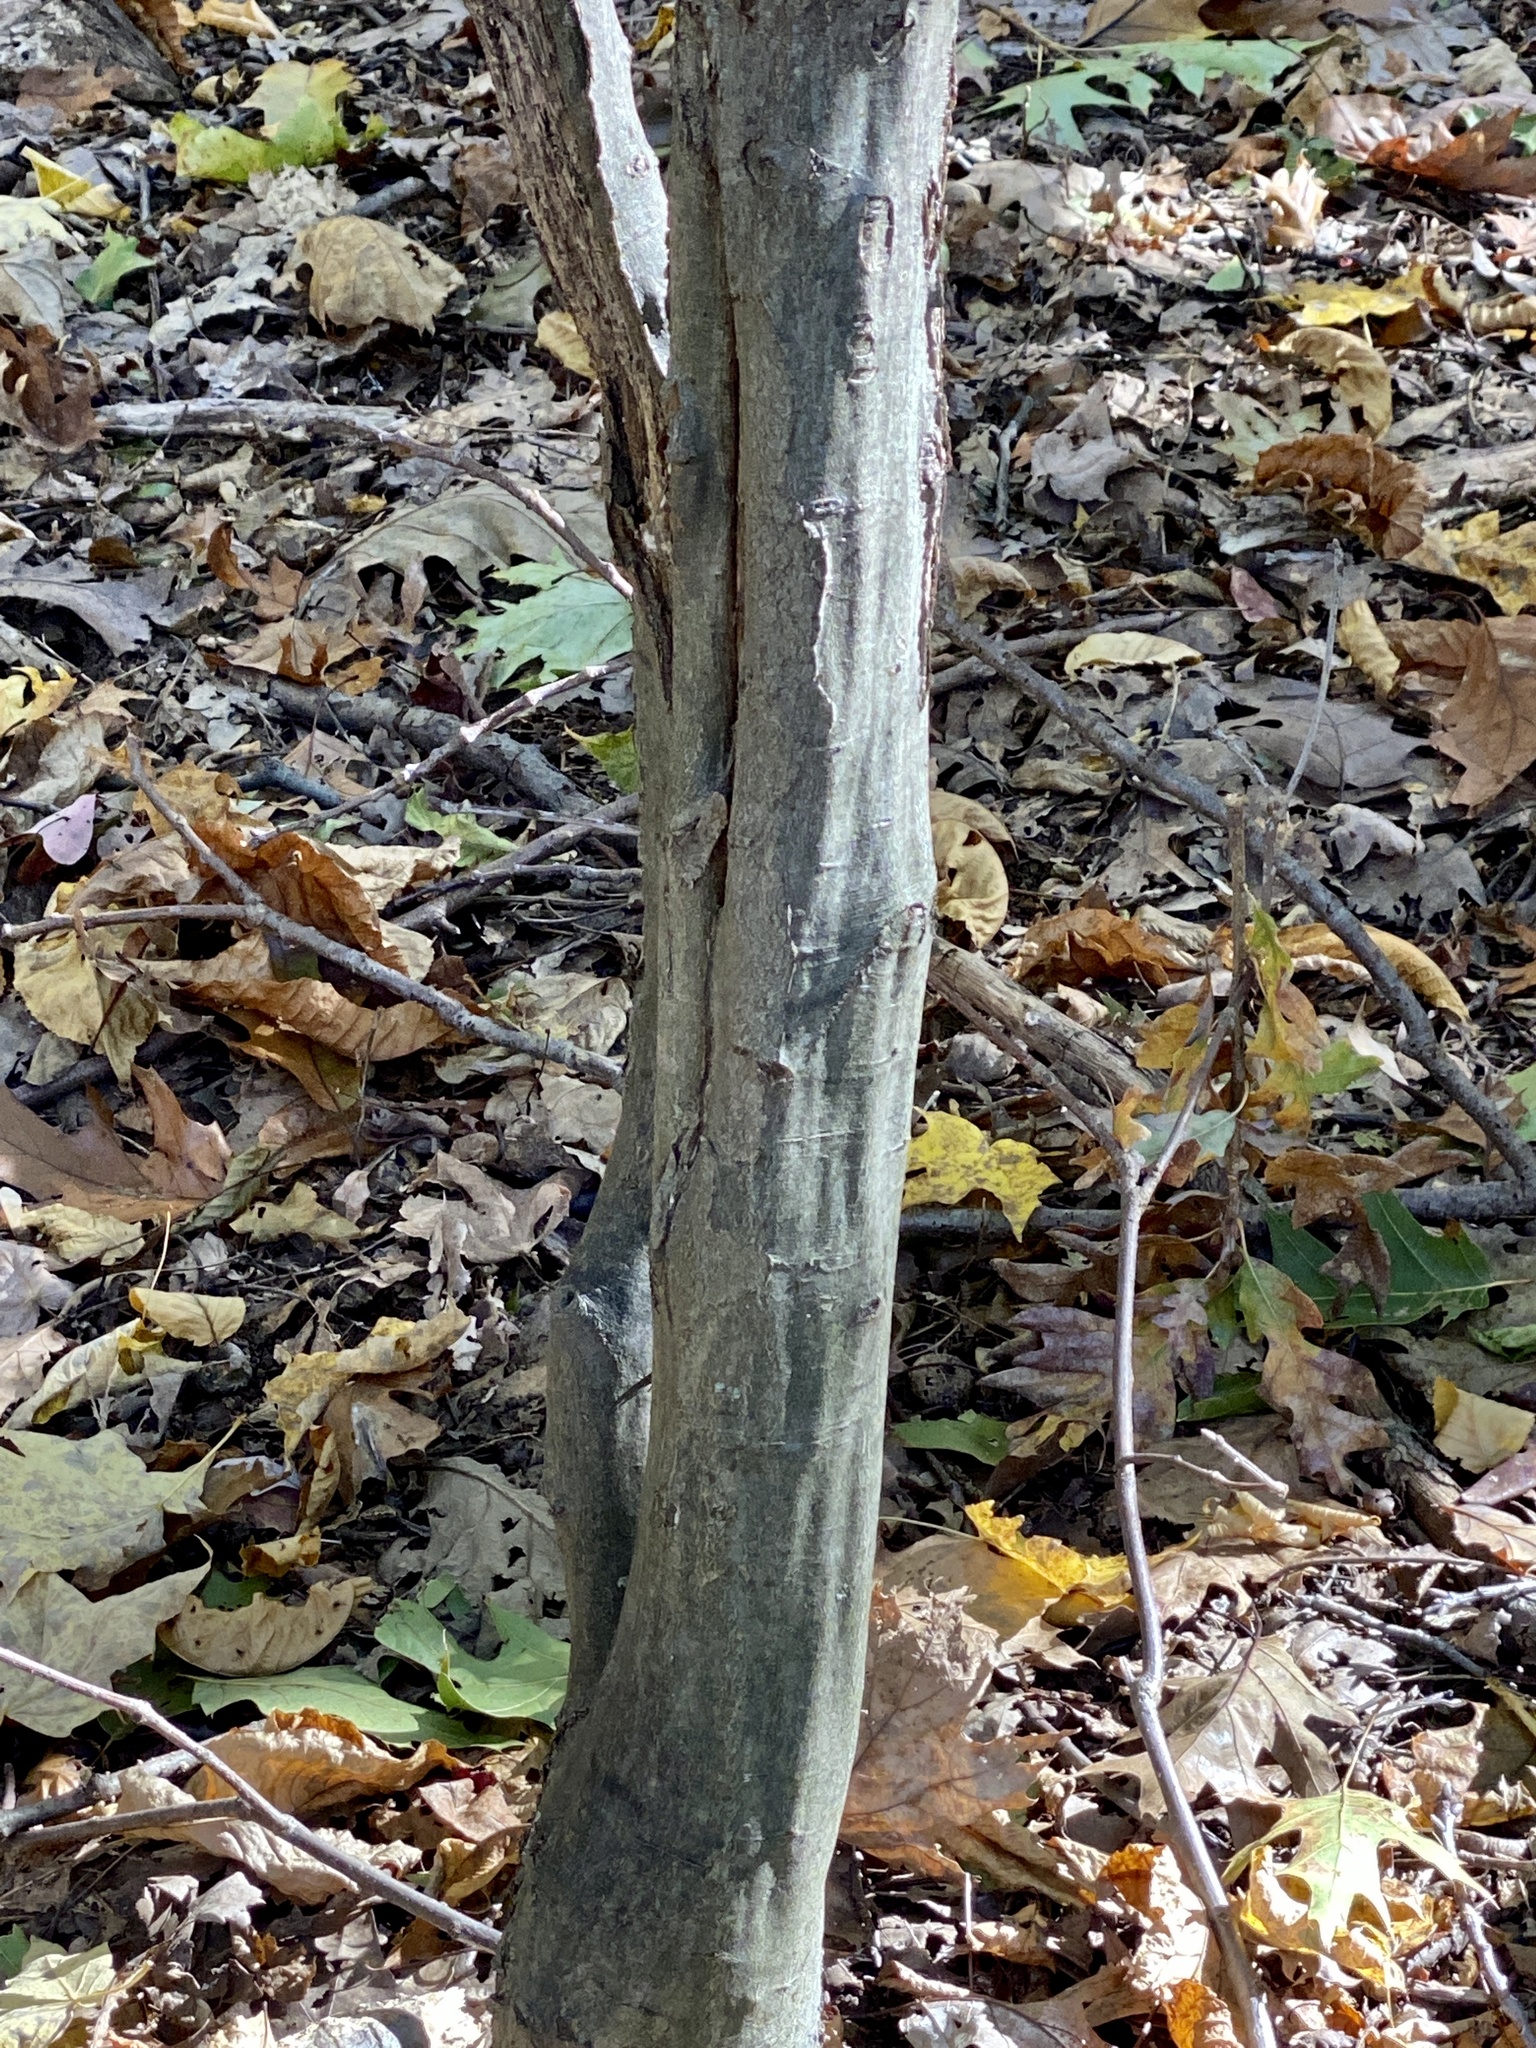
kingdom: Plantae
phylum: Tracheophyta
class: Magnoliopsida
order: Fagales
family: Betulaceae
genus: Carpinus
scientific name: Carpinus caroliniana
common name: American hornbeam
